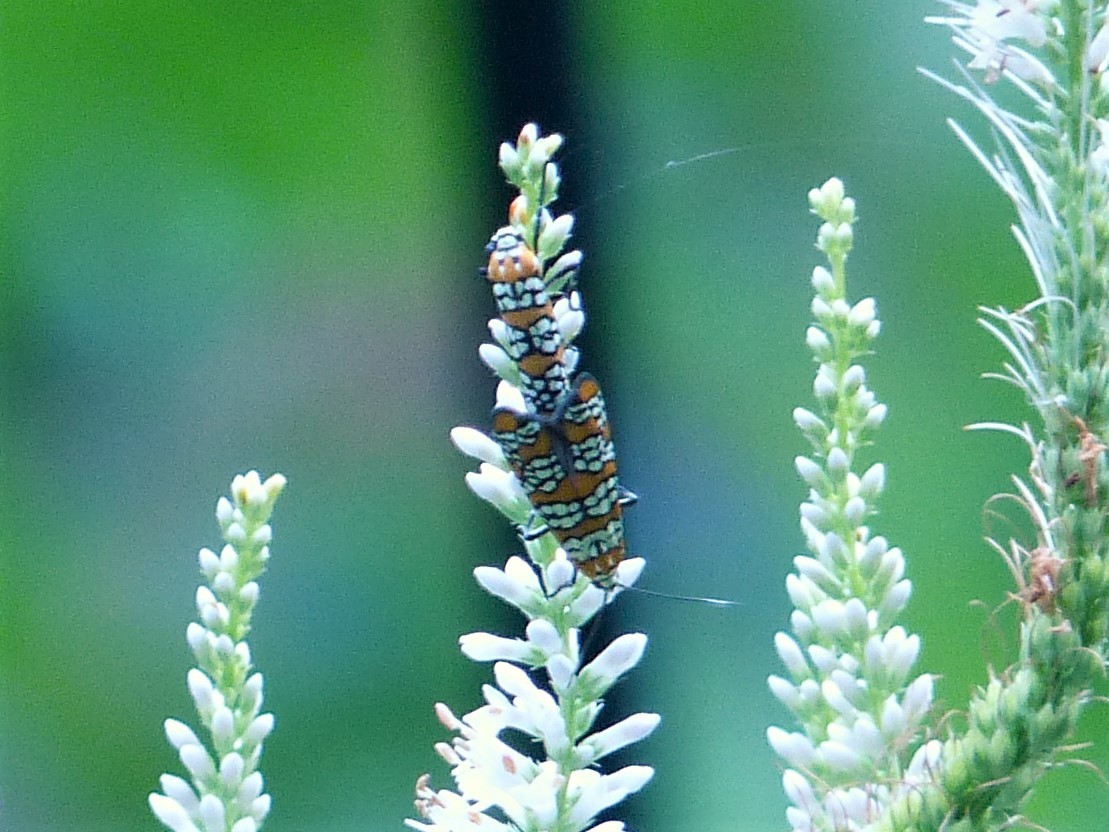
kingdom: Animalia
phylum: Arthropoda
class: Insecta
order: Lepidoptera
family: Attevidae
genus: Atteva
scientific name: Atteva punctella
